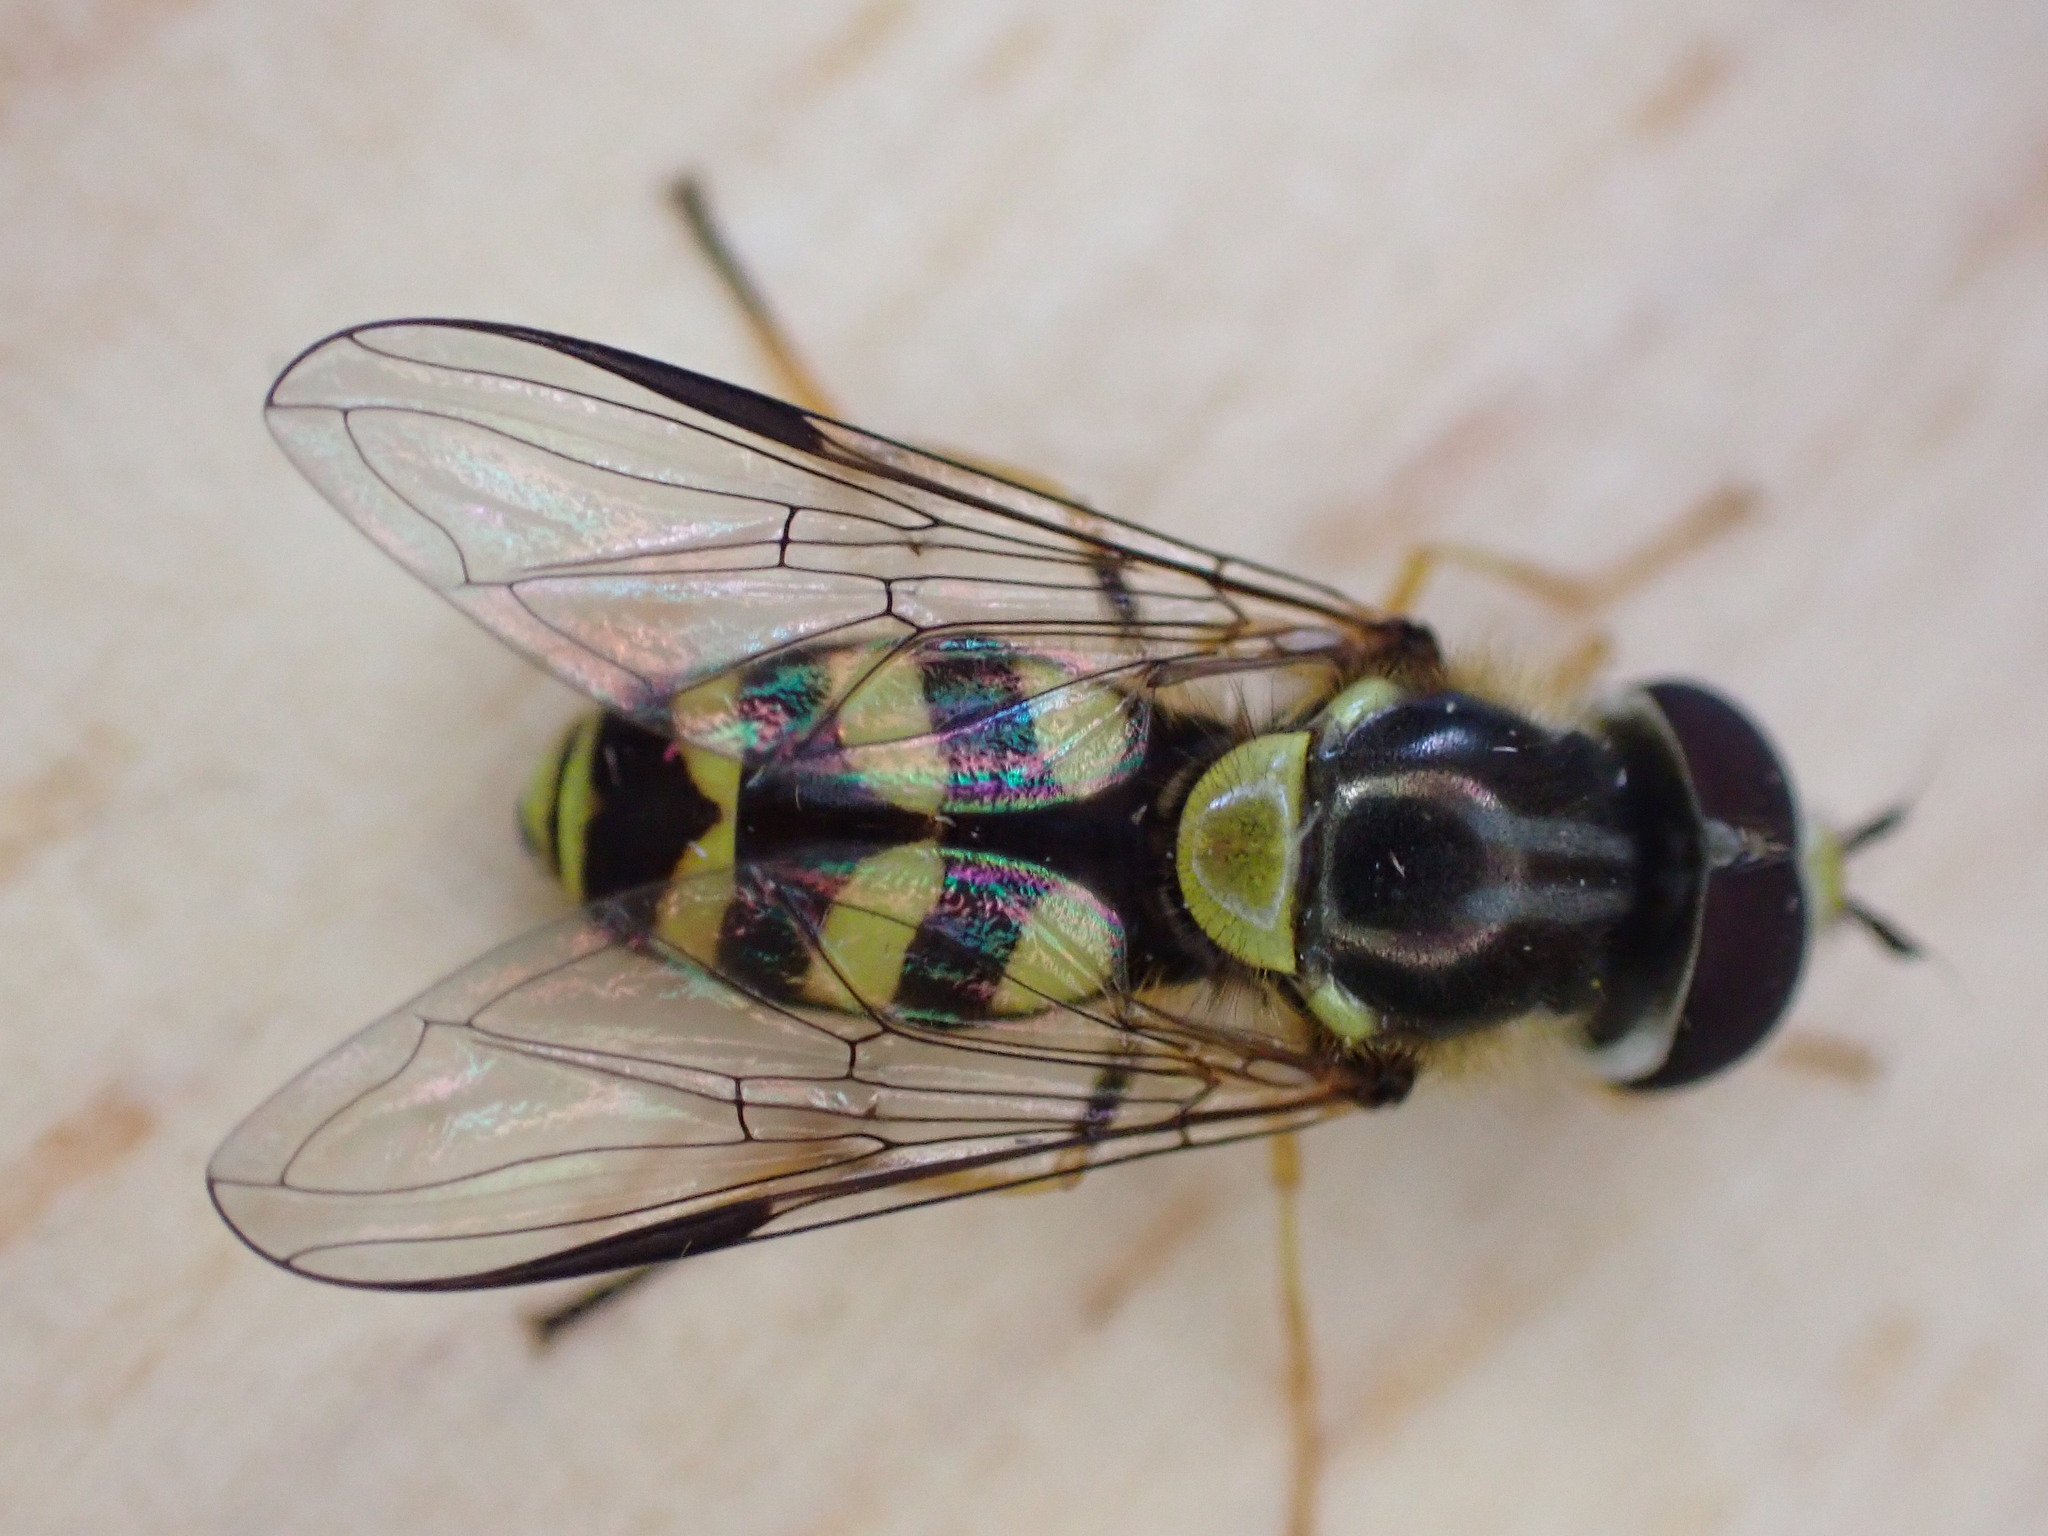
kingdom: Animalia
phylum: Arthropoda
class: Insecta
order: Diptera
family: Syrphidae
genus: Dasysyrphus
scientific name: Dasysyrphus albostriatus
